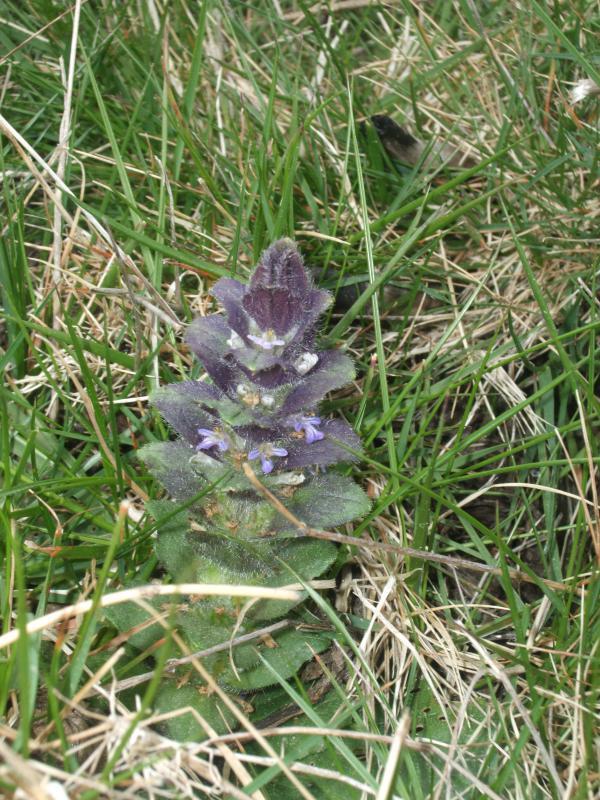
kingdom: Plantae
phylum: Tracheophyta
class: Magnoliopsida
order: Lamiales
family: Lamiaceae
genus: Ajuga
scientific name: Ajuga pyramidalis
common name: Pyramid bugle
